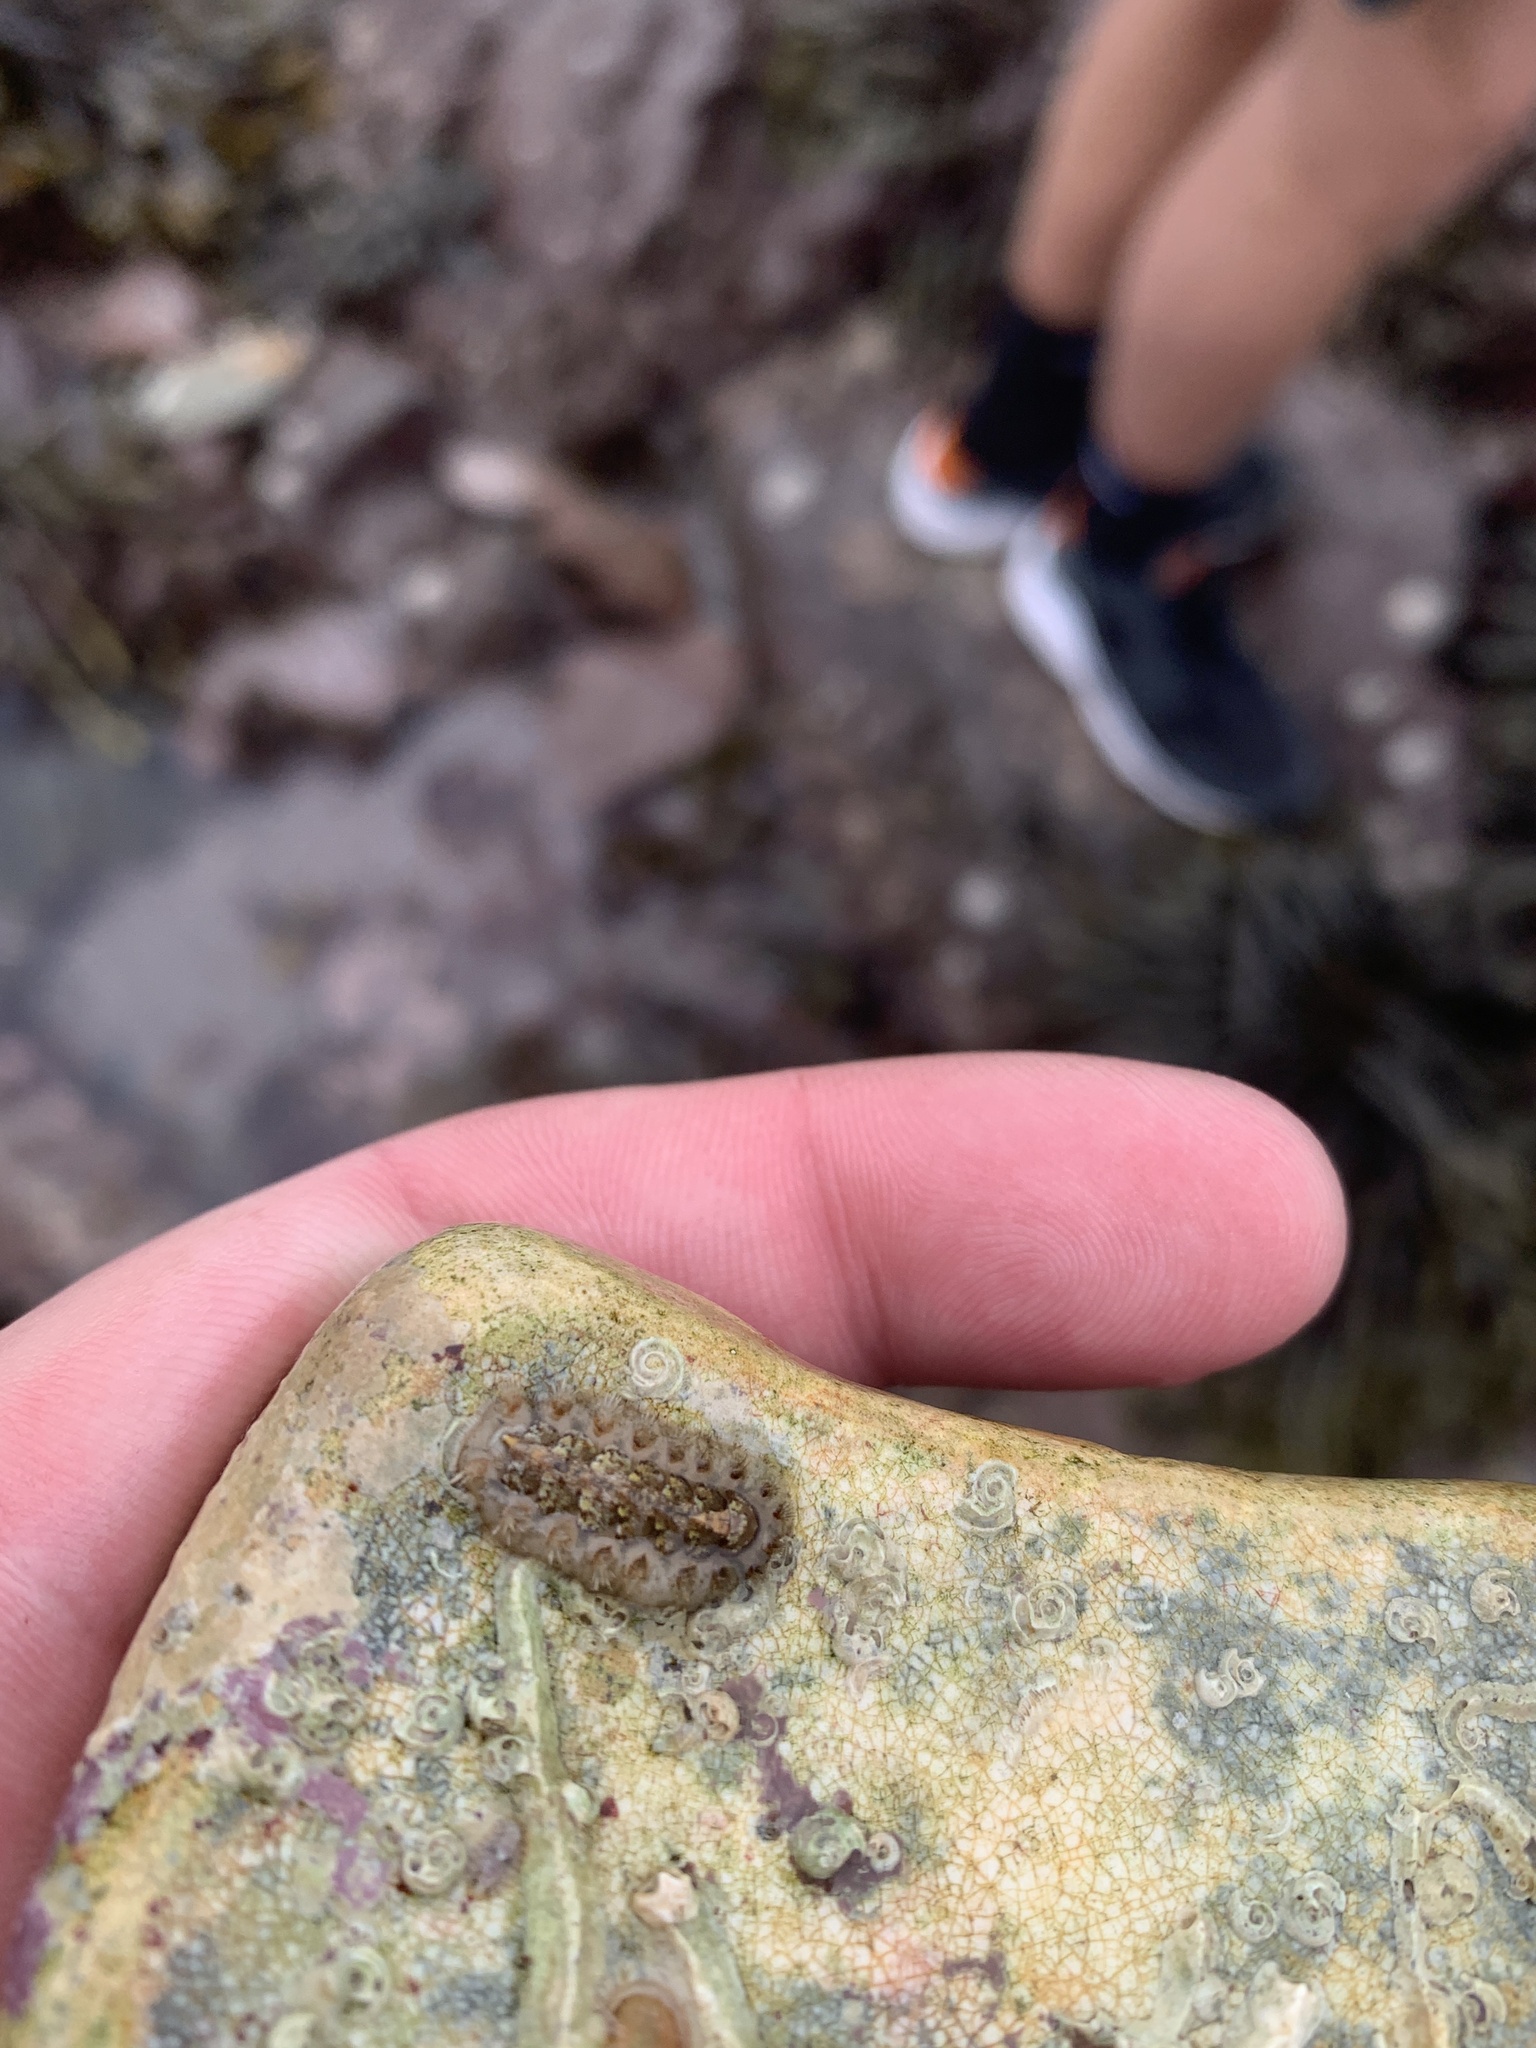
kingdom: Animalia
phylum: Mollusca
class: Polyplacophora
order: Chitonida
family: Acanthochitonidae
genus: Acanthochitona
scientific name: Acanthochitona crinita
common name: Bristly mail chiton
